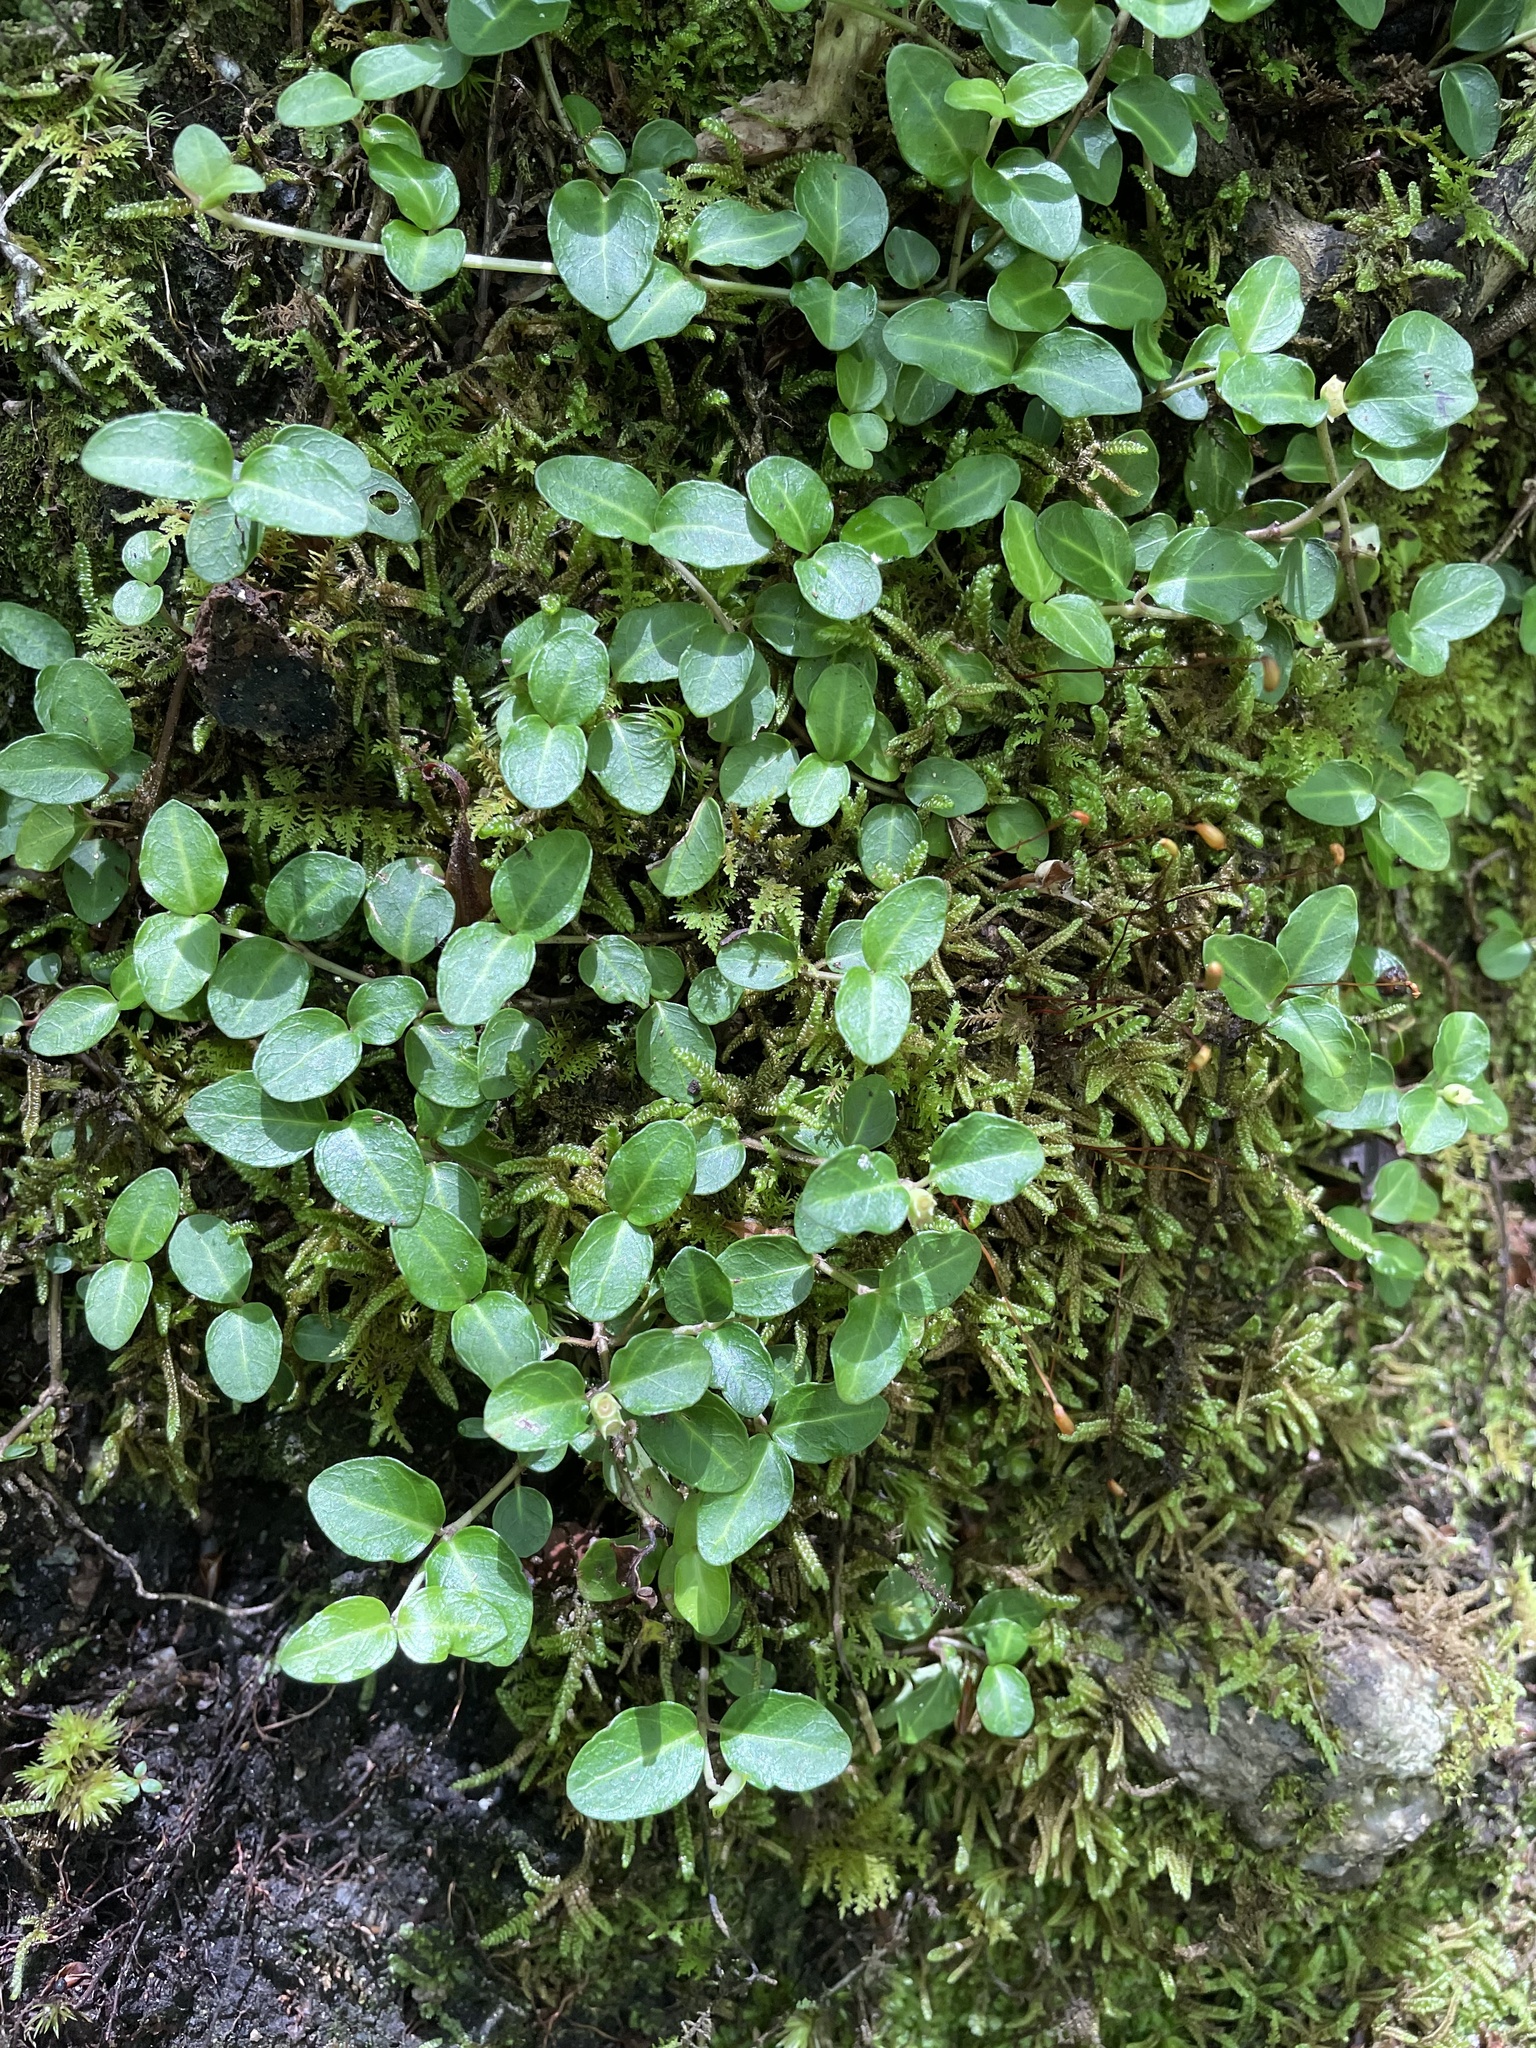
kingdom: Plantae
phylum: Tracheophyta
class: Magnoliopsida
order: Gentianales
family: Rubiaceae
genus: Mitchella
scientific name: Mitchella repens
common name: Partridge-berry
